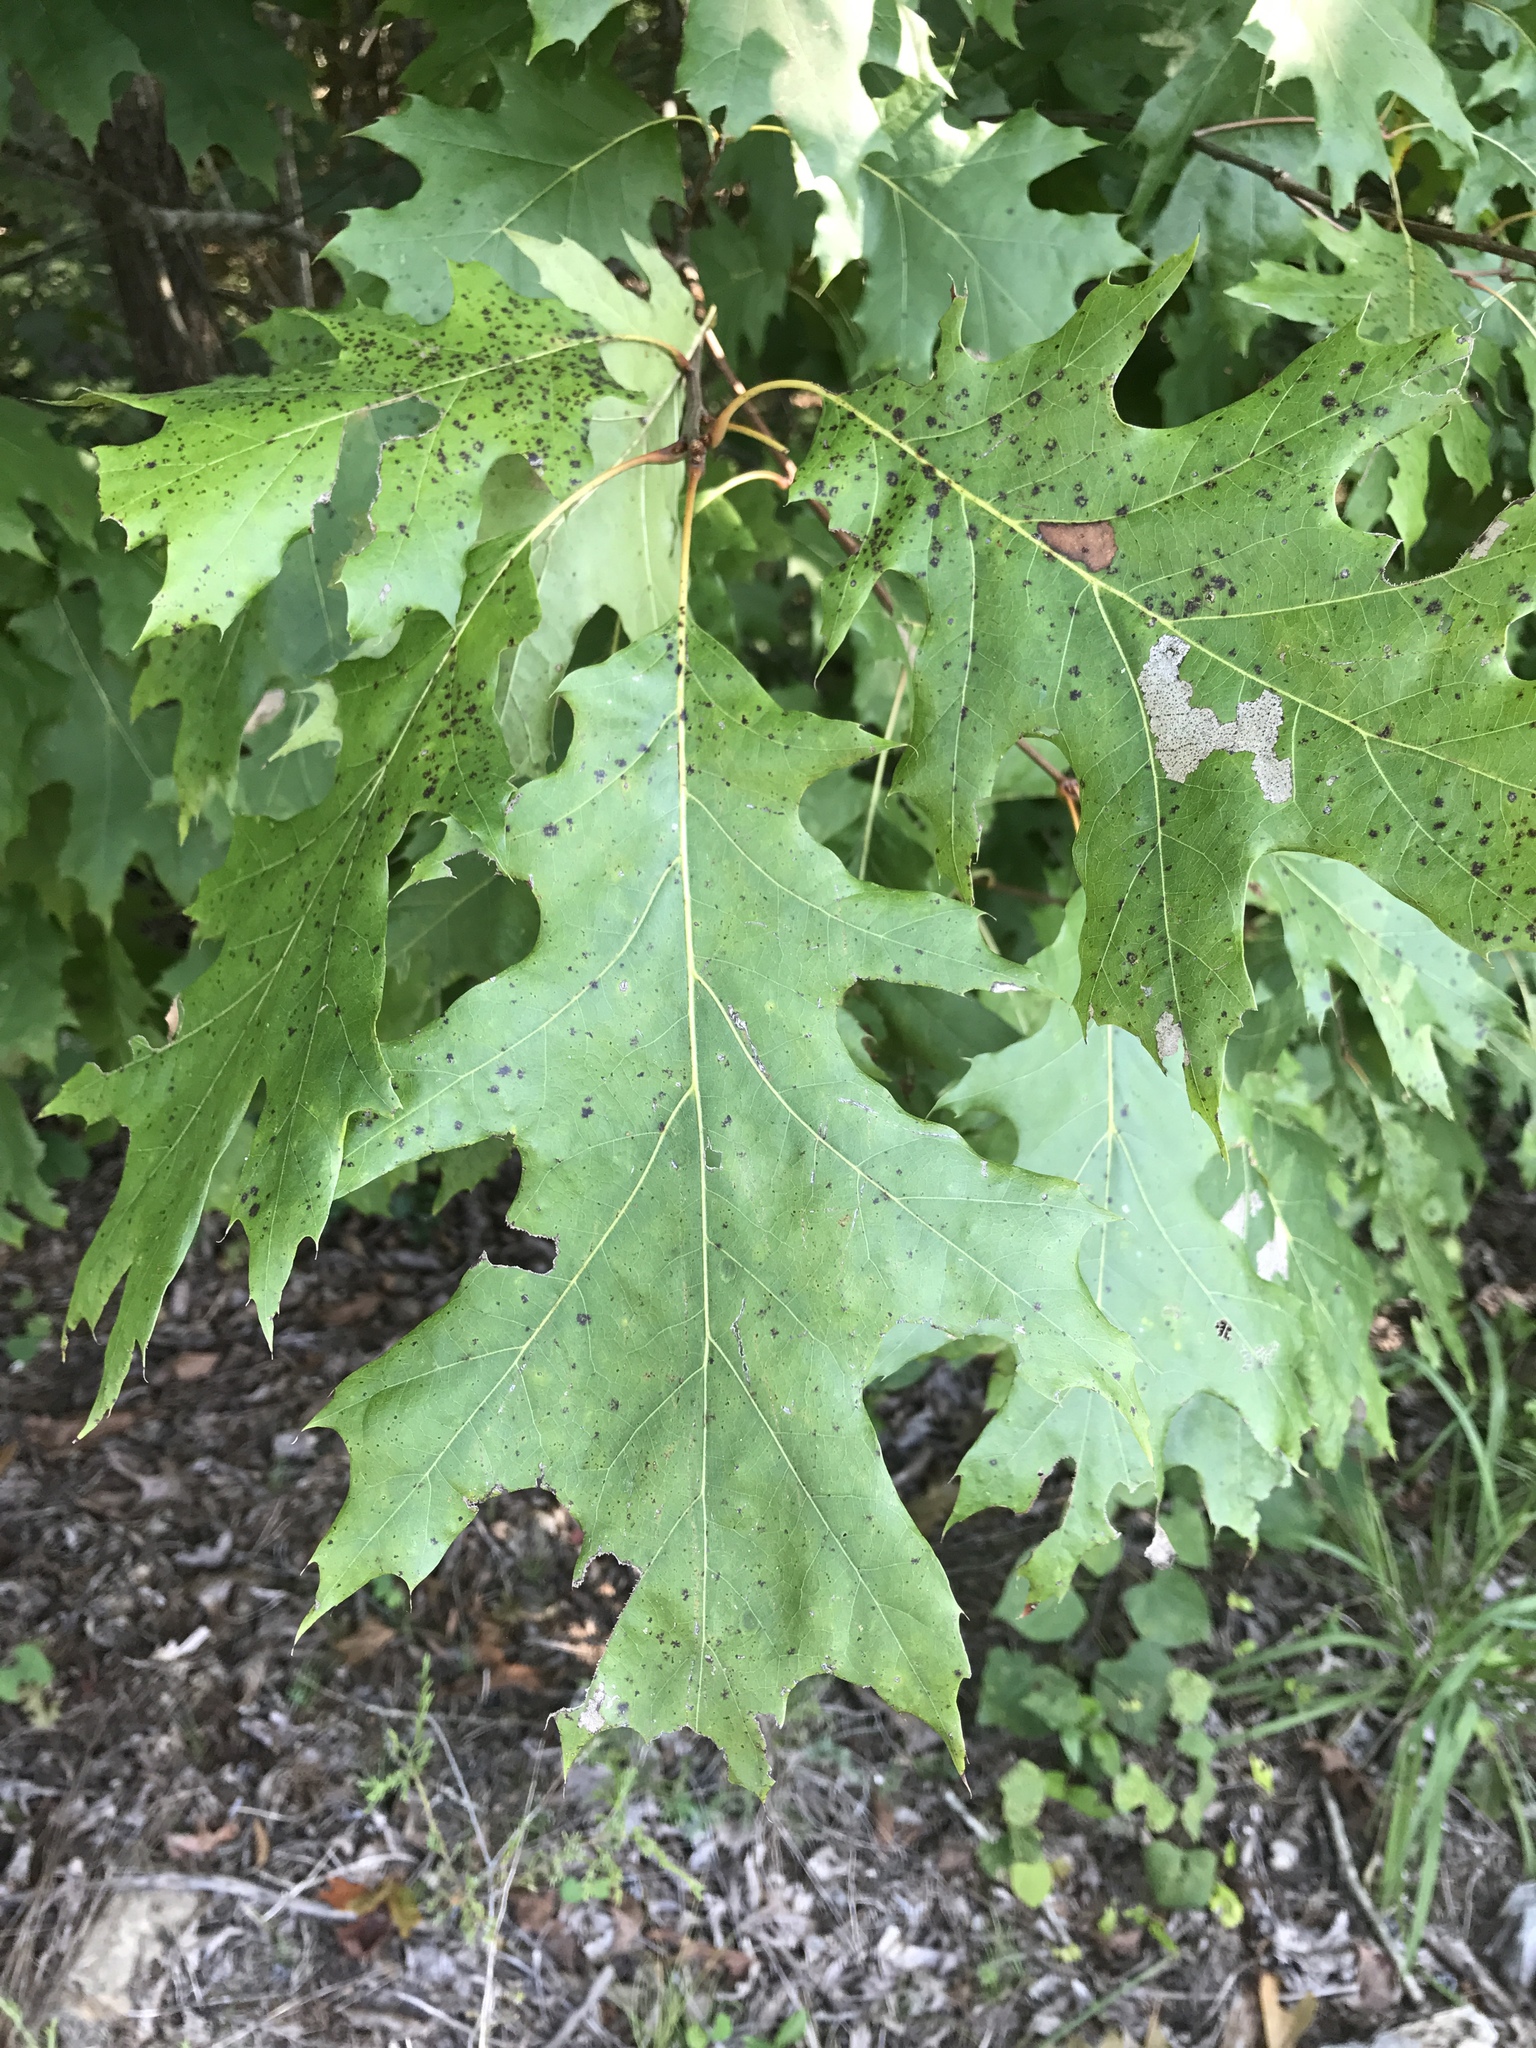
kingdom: Plantae
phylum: Tracheophyta
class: Magnoliopsida
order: Fagales
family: Fagaceae
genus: Quercus
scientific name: Quercus rubra
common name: Red oak
